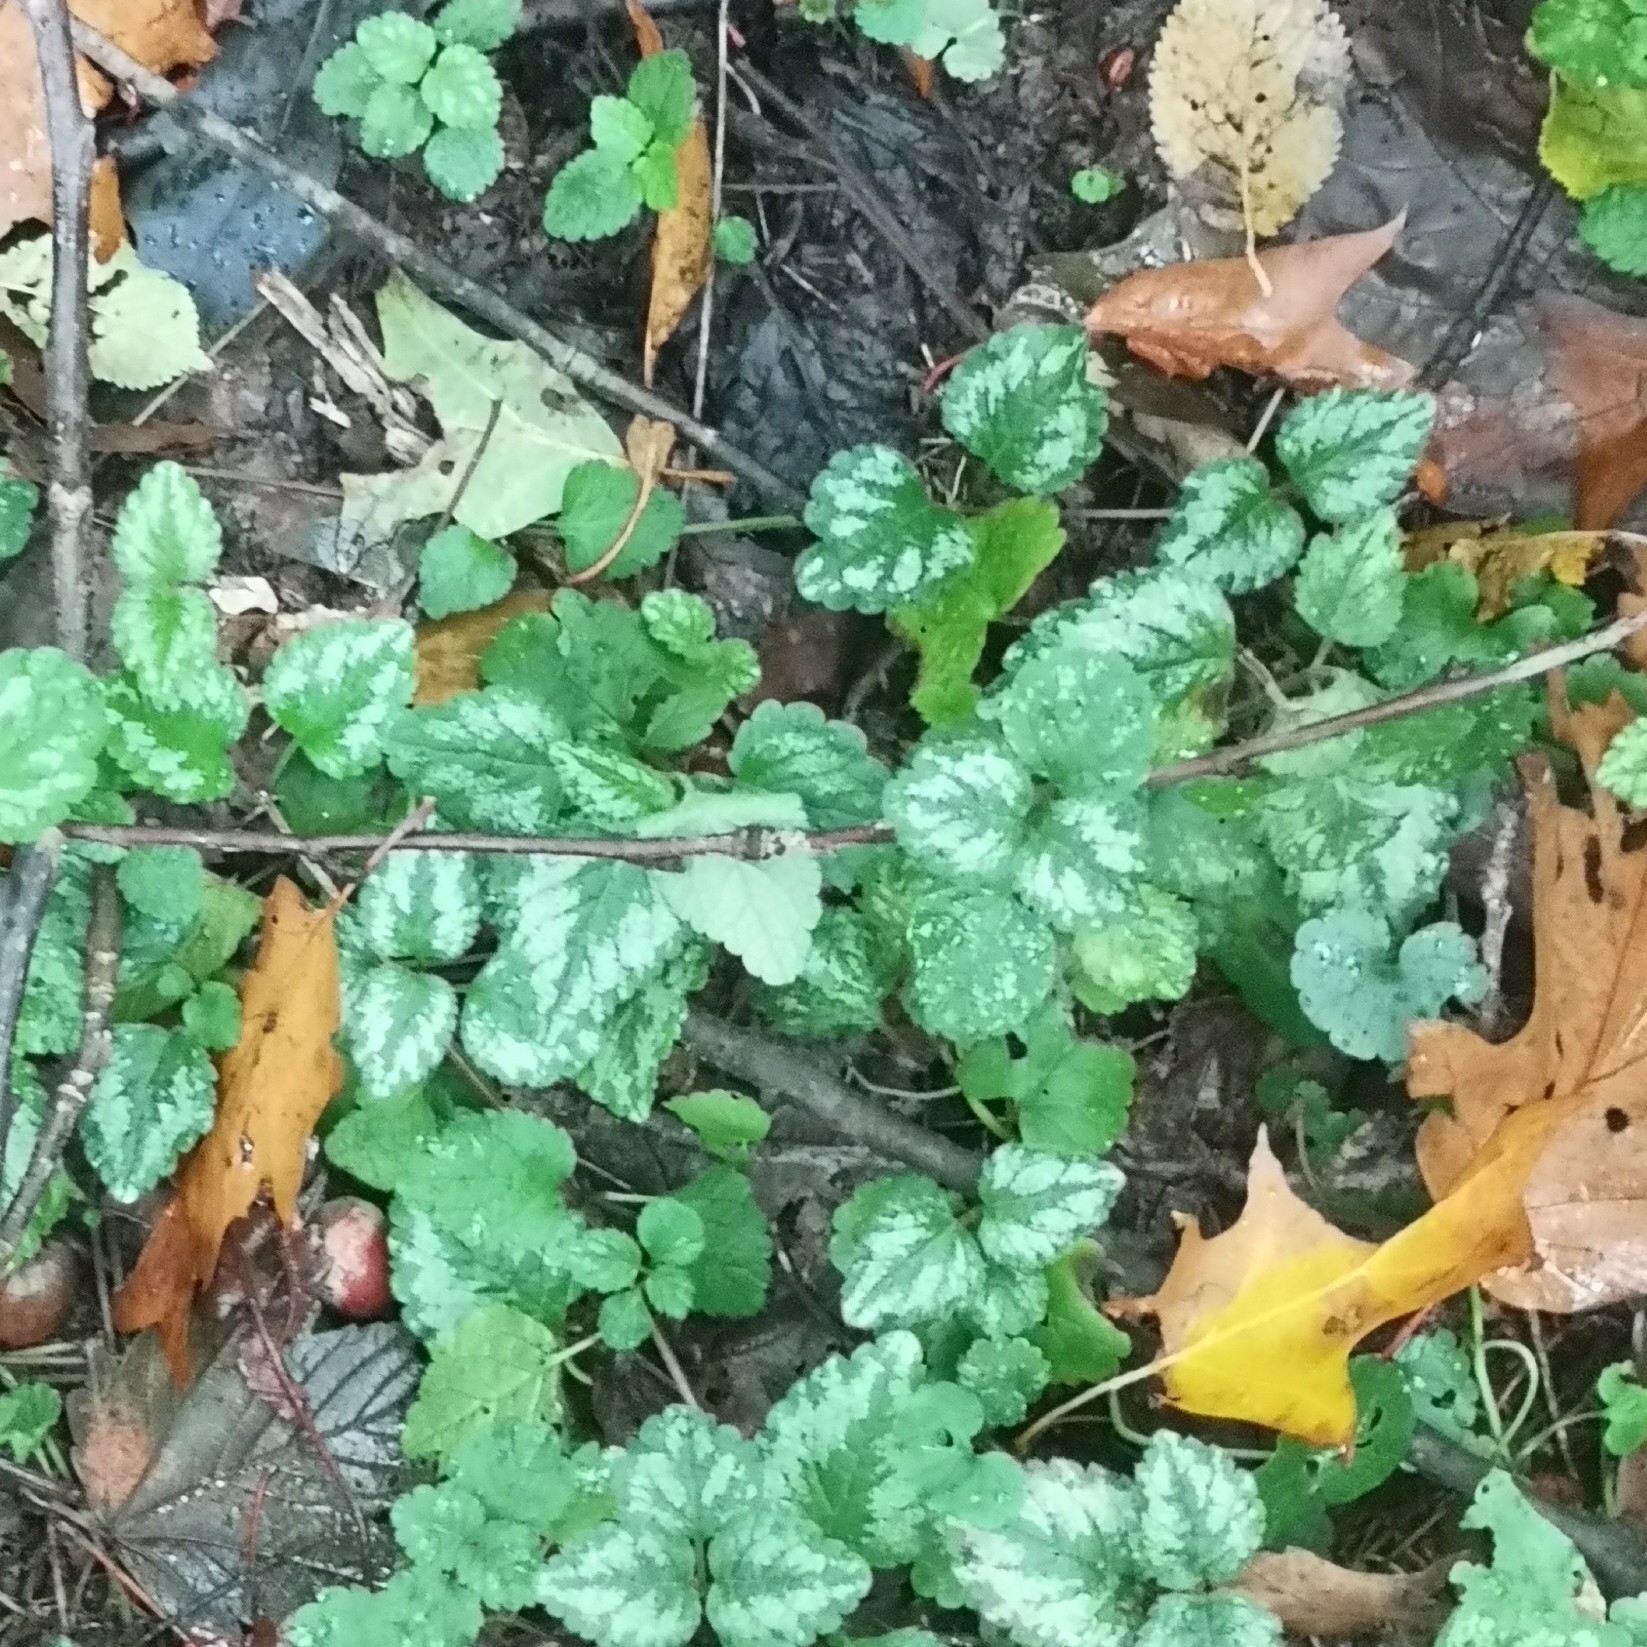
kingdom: Plantae
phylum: Tracheophyta
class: Magnoliopsida
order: Lamiales
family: Lamiaceae
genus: Lamium
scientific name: Lamium galeobdolon
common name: Yellow archangel
